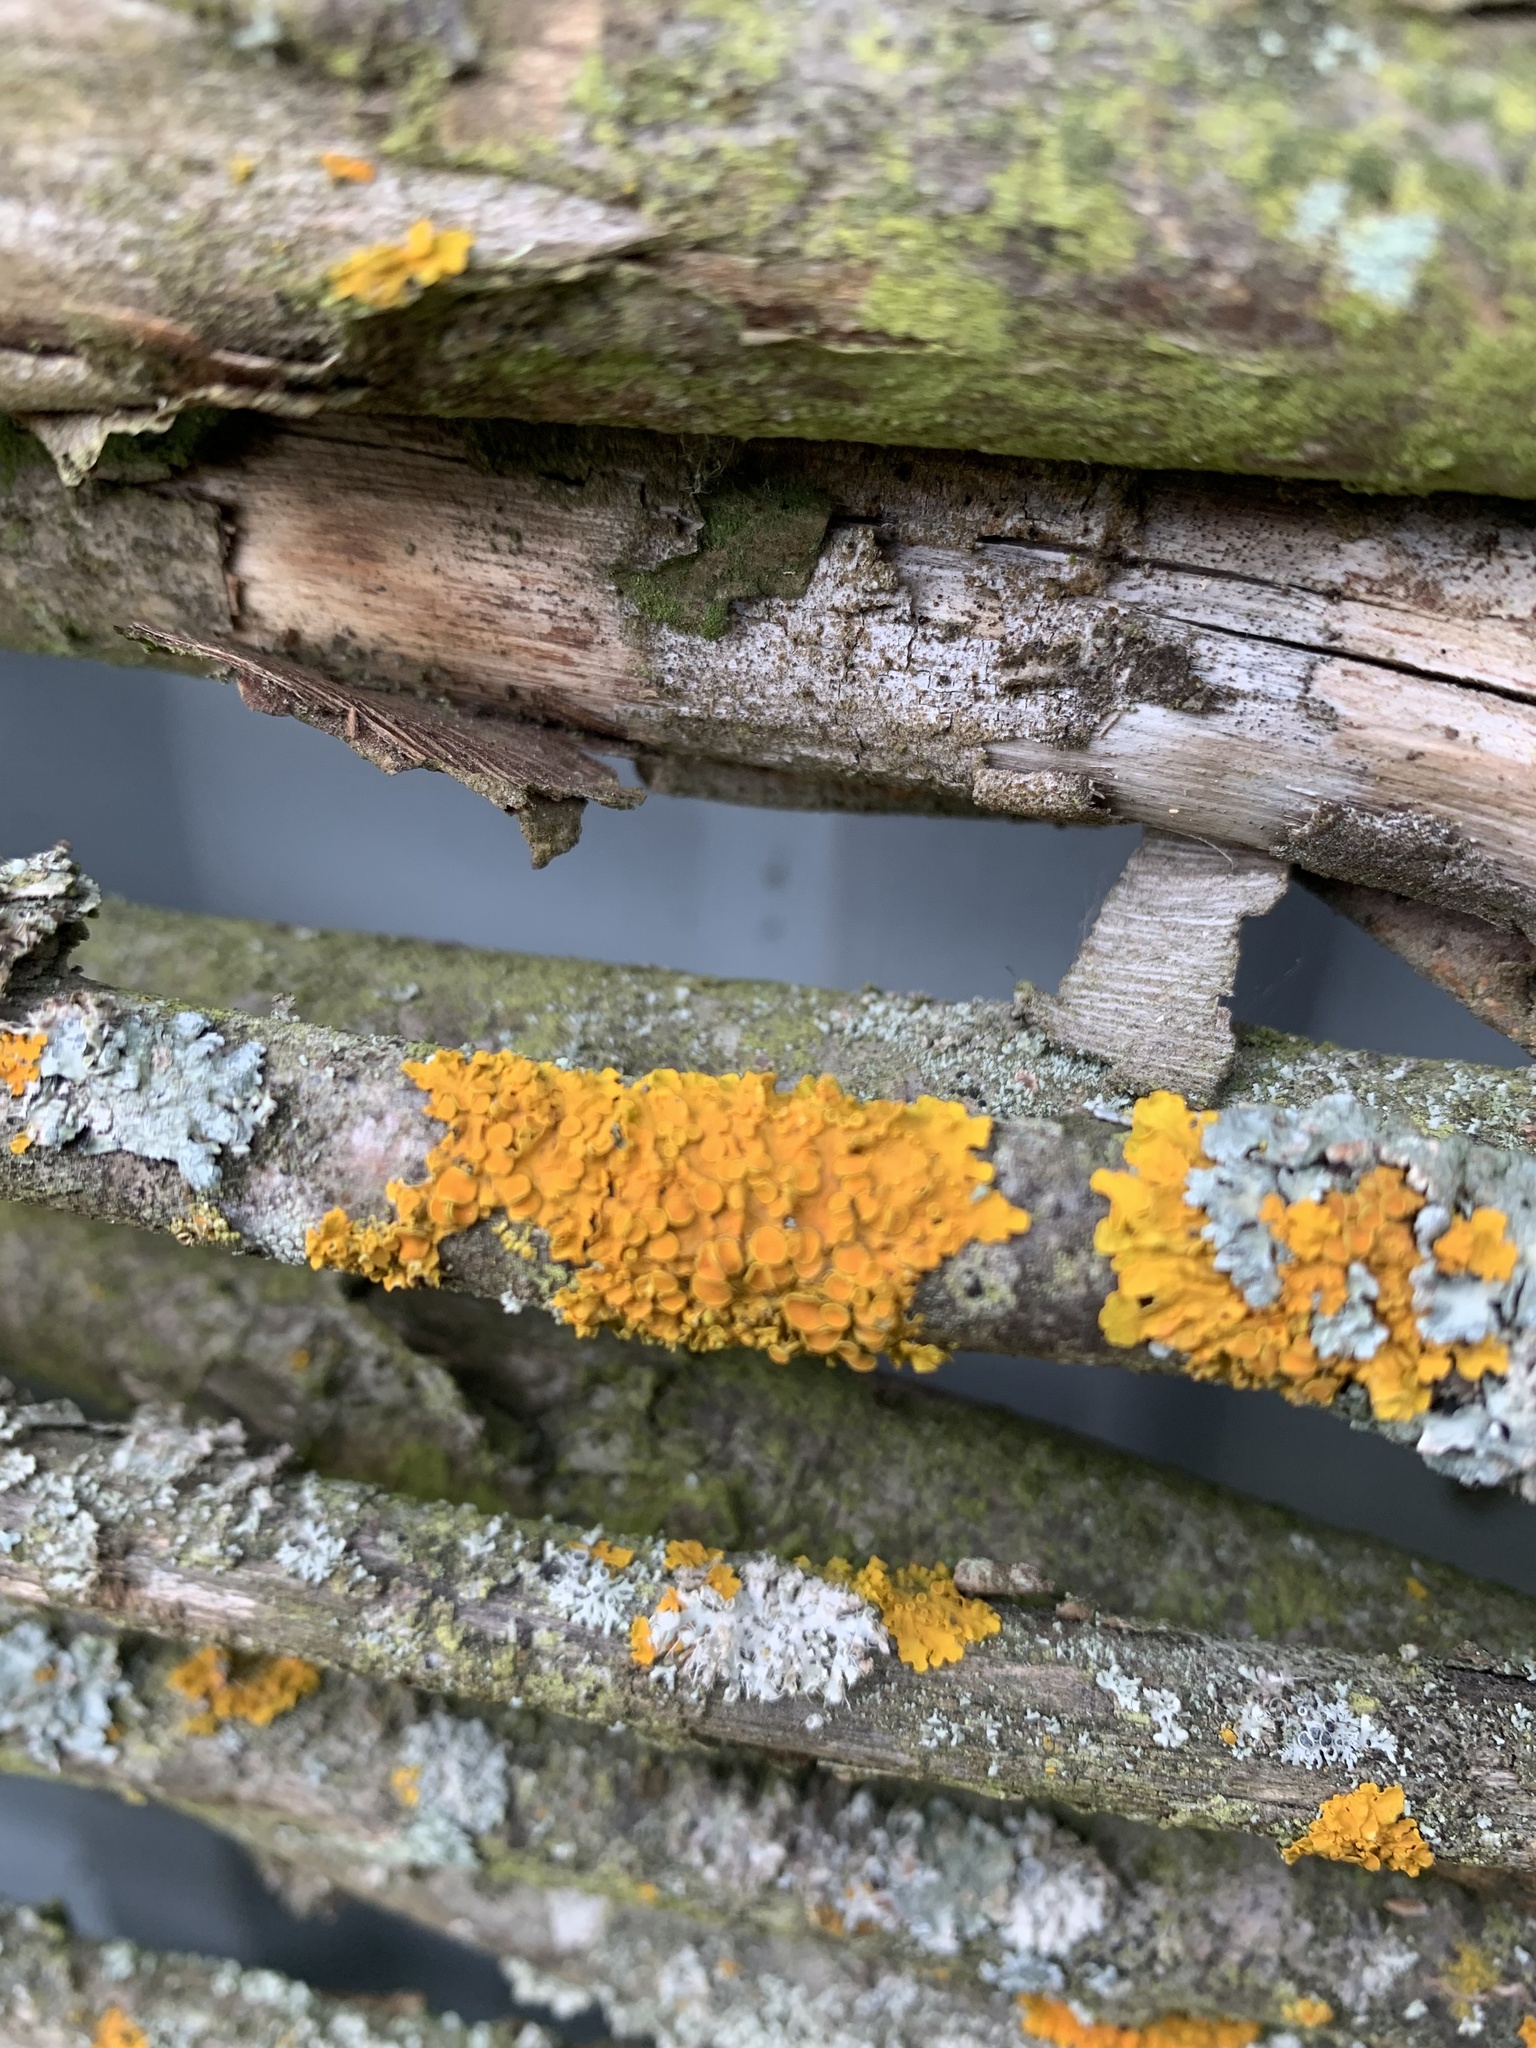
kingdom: Fungi
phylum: Ascomycota
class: Lecanoromycetes
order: Teloschistales
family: Teloschistaceae
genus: Xanthoria
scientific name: Xanthoria parietina
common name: Common orange lichen
